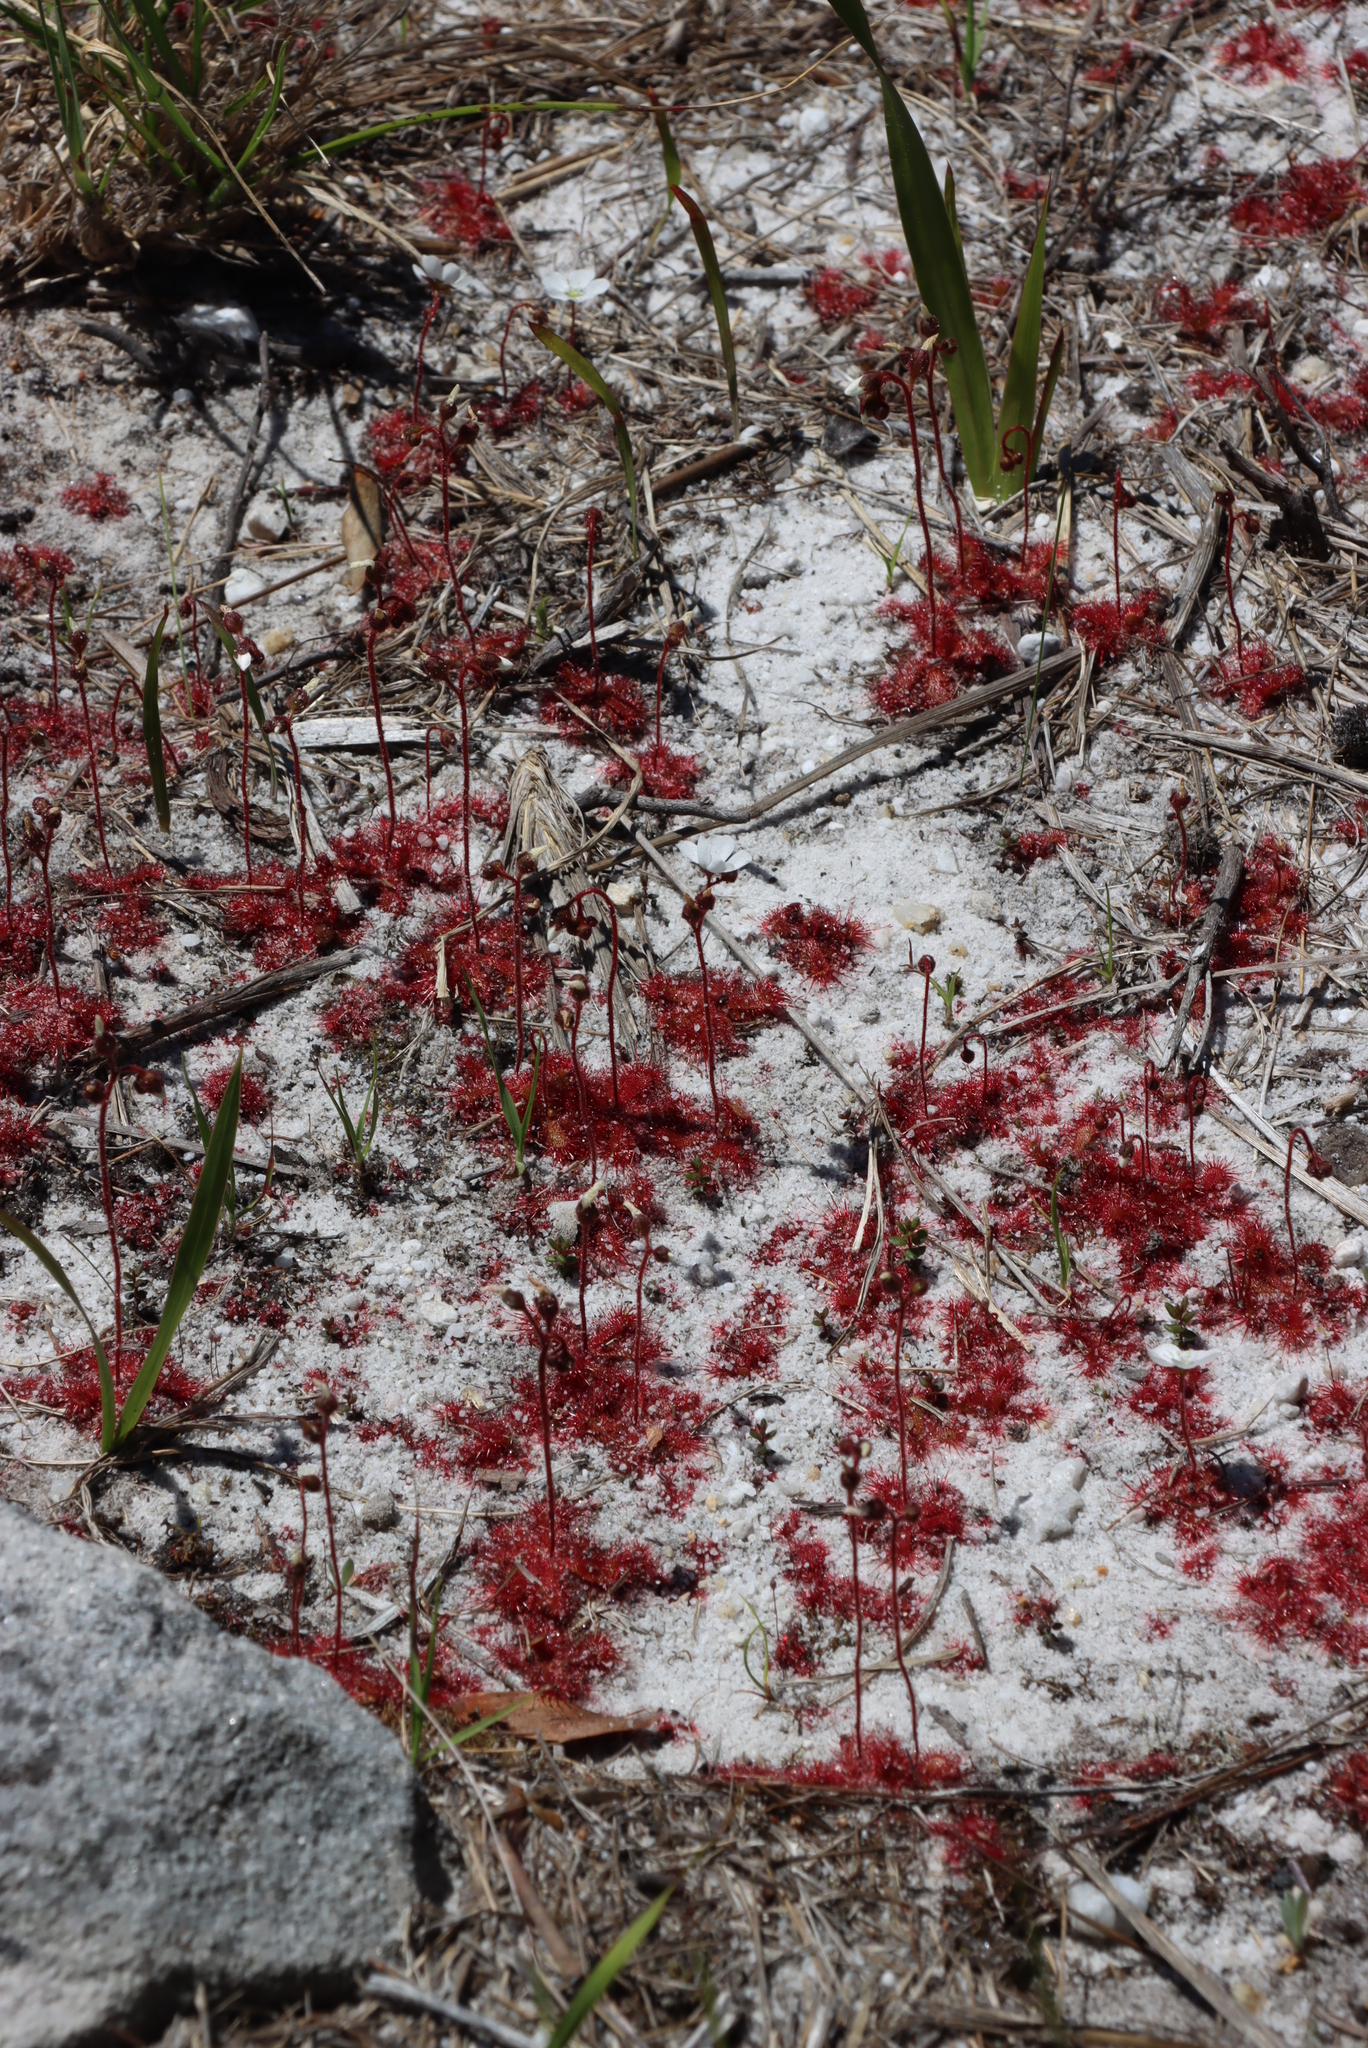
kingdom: Plantae
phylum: Tracheophyta
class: Magnoliopsida
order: Caryophyllales
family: Droseraceae
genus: Drosera
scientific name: Drosera trinervia
